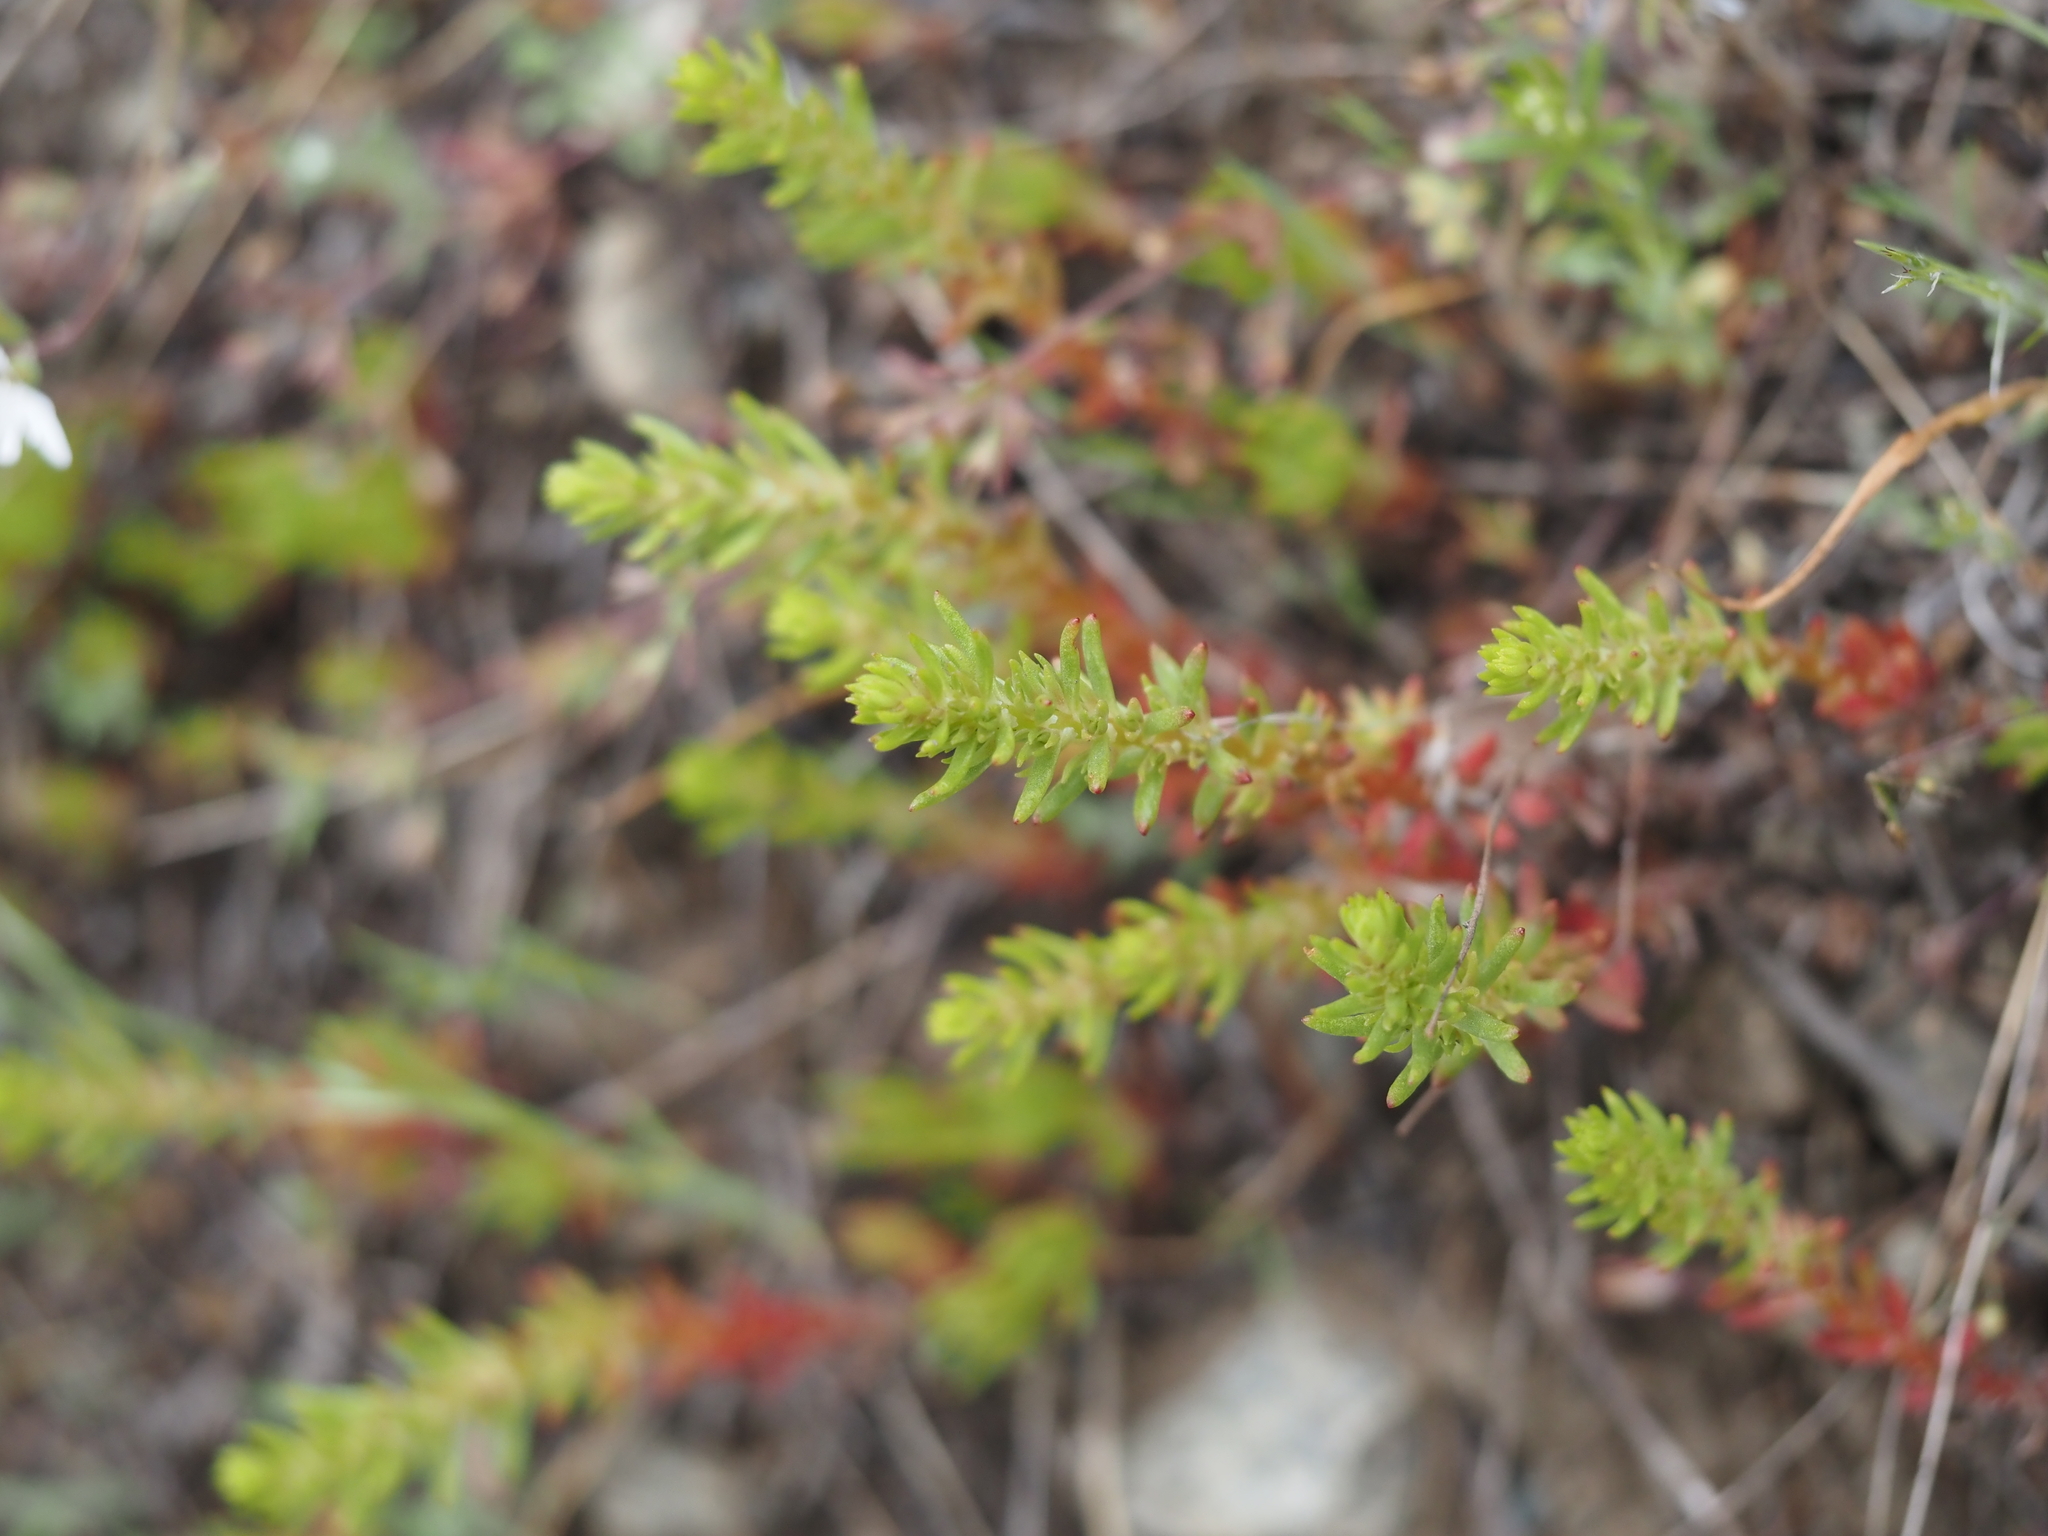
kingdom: Plantae
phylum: Tracheophyta
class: Magnoliopsida
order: Saxifragales
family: Crassulaceae
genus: Sedum
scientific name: Sedum stenopetalum
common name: Narrow-petaled stonecrop
